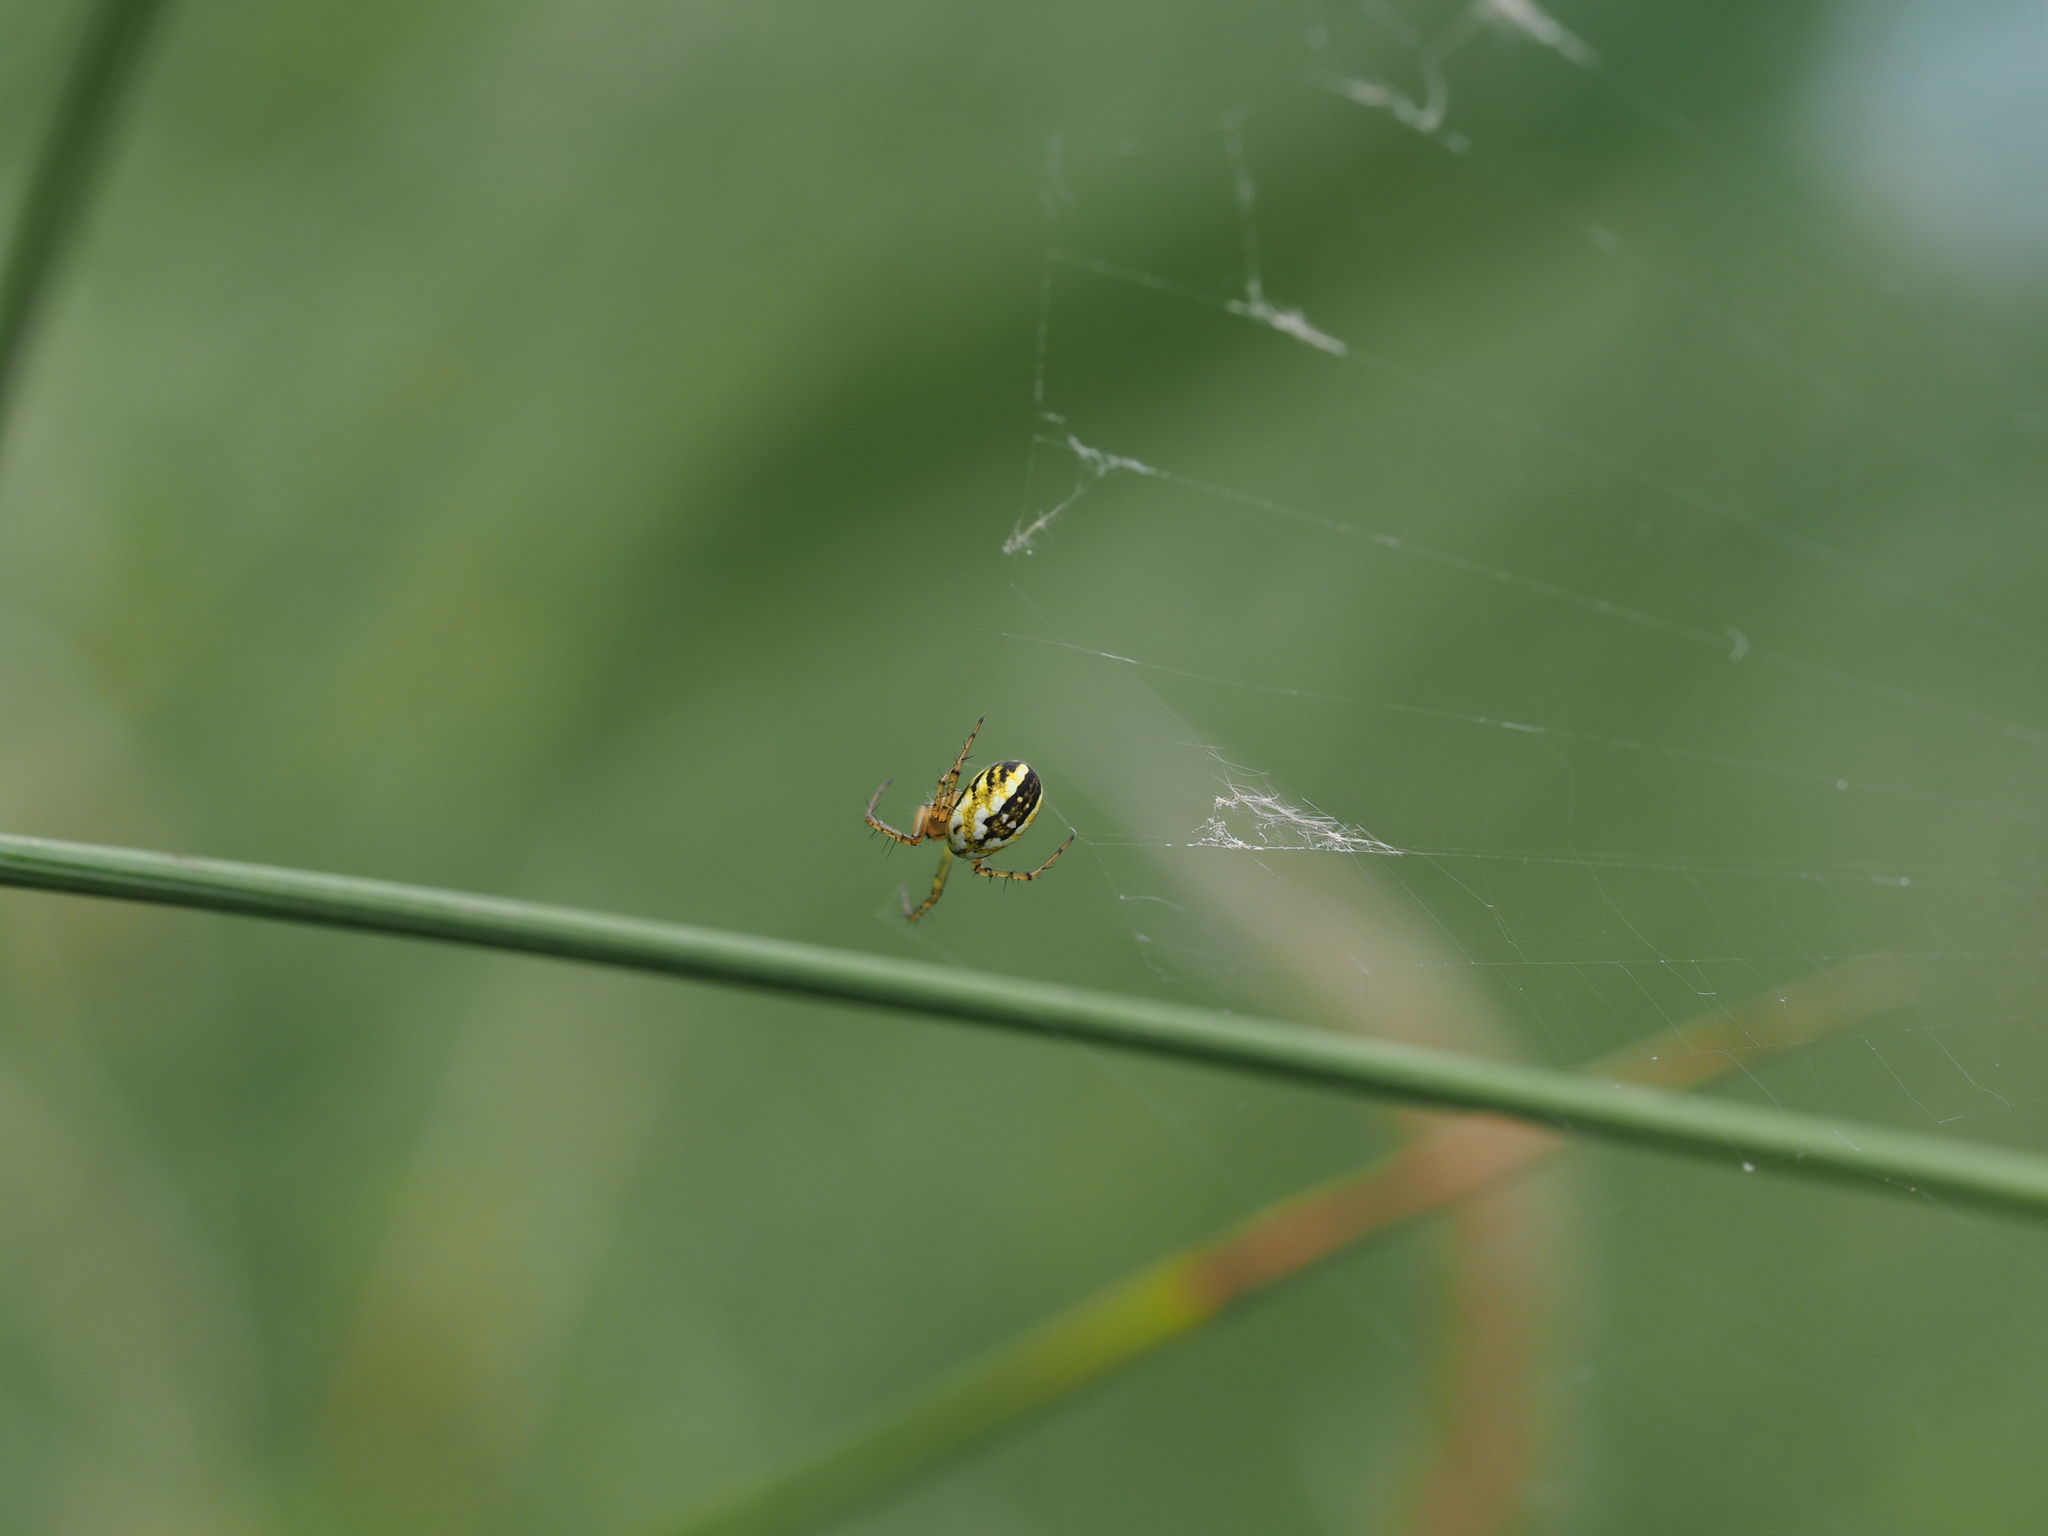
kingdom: Animalia
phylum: Arthropoda
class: Arachnida
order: Araneae
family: Araneidae
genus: Mangora
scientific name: Mangora acalypha
